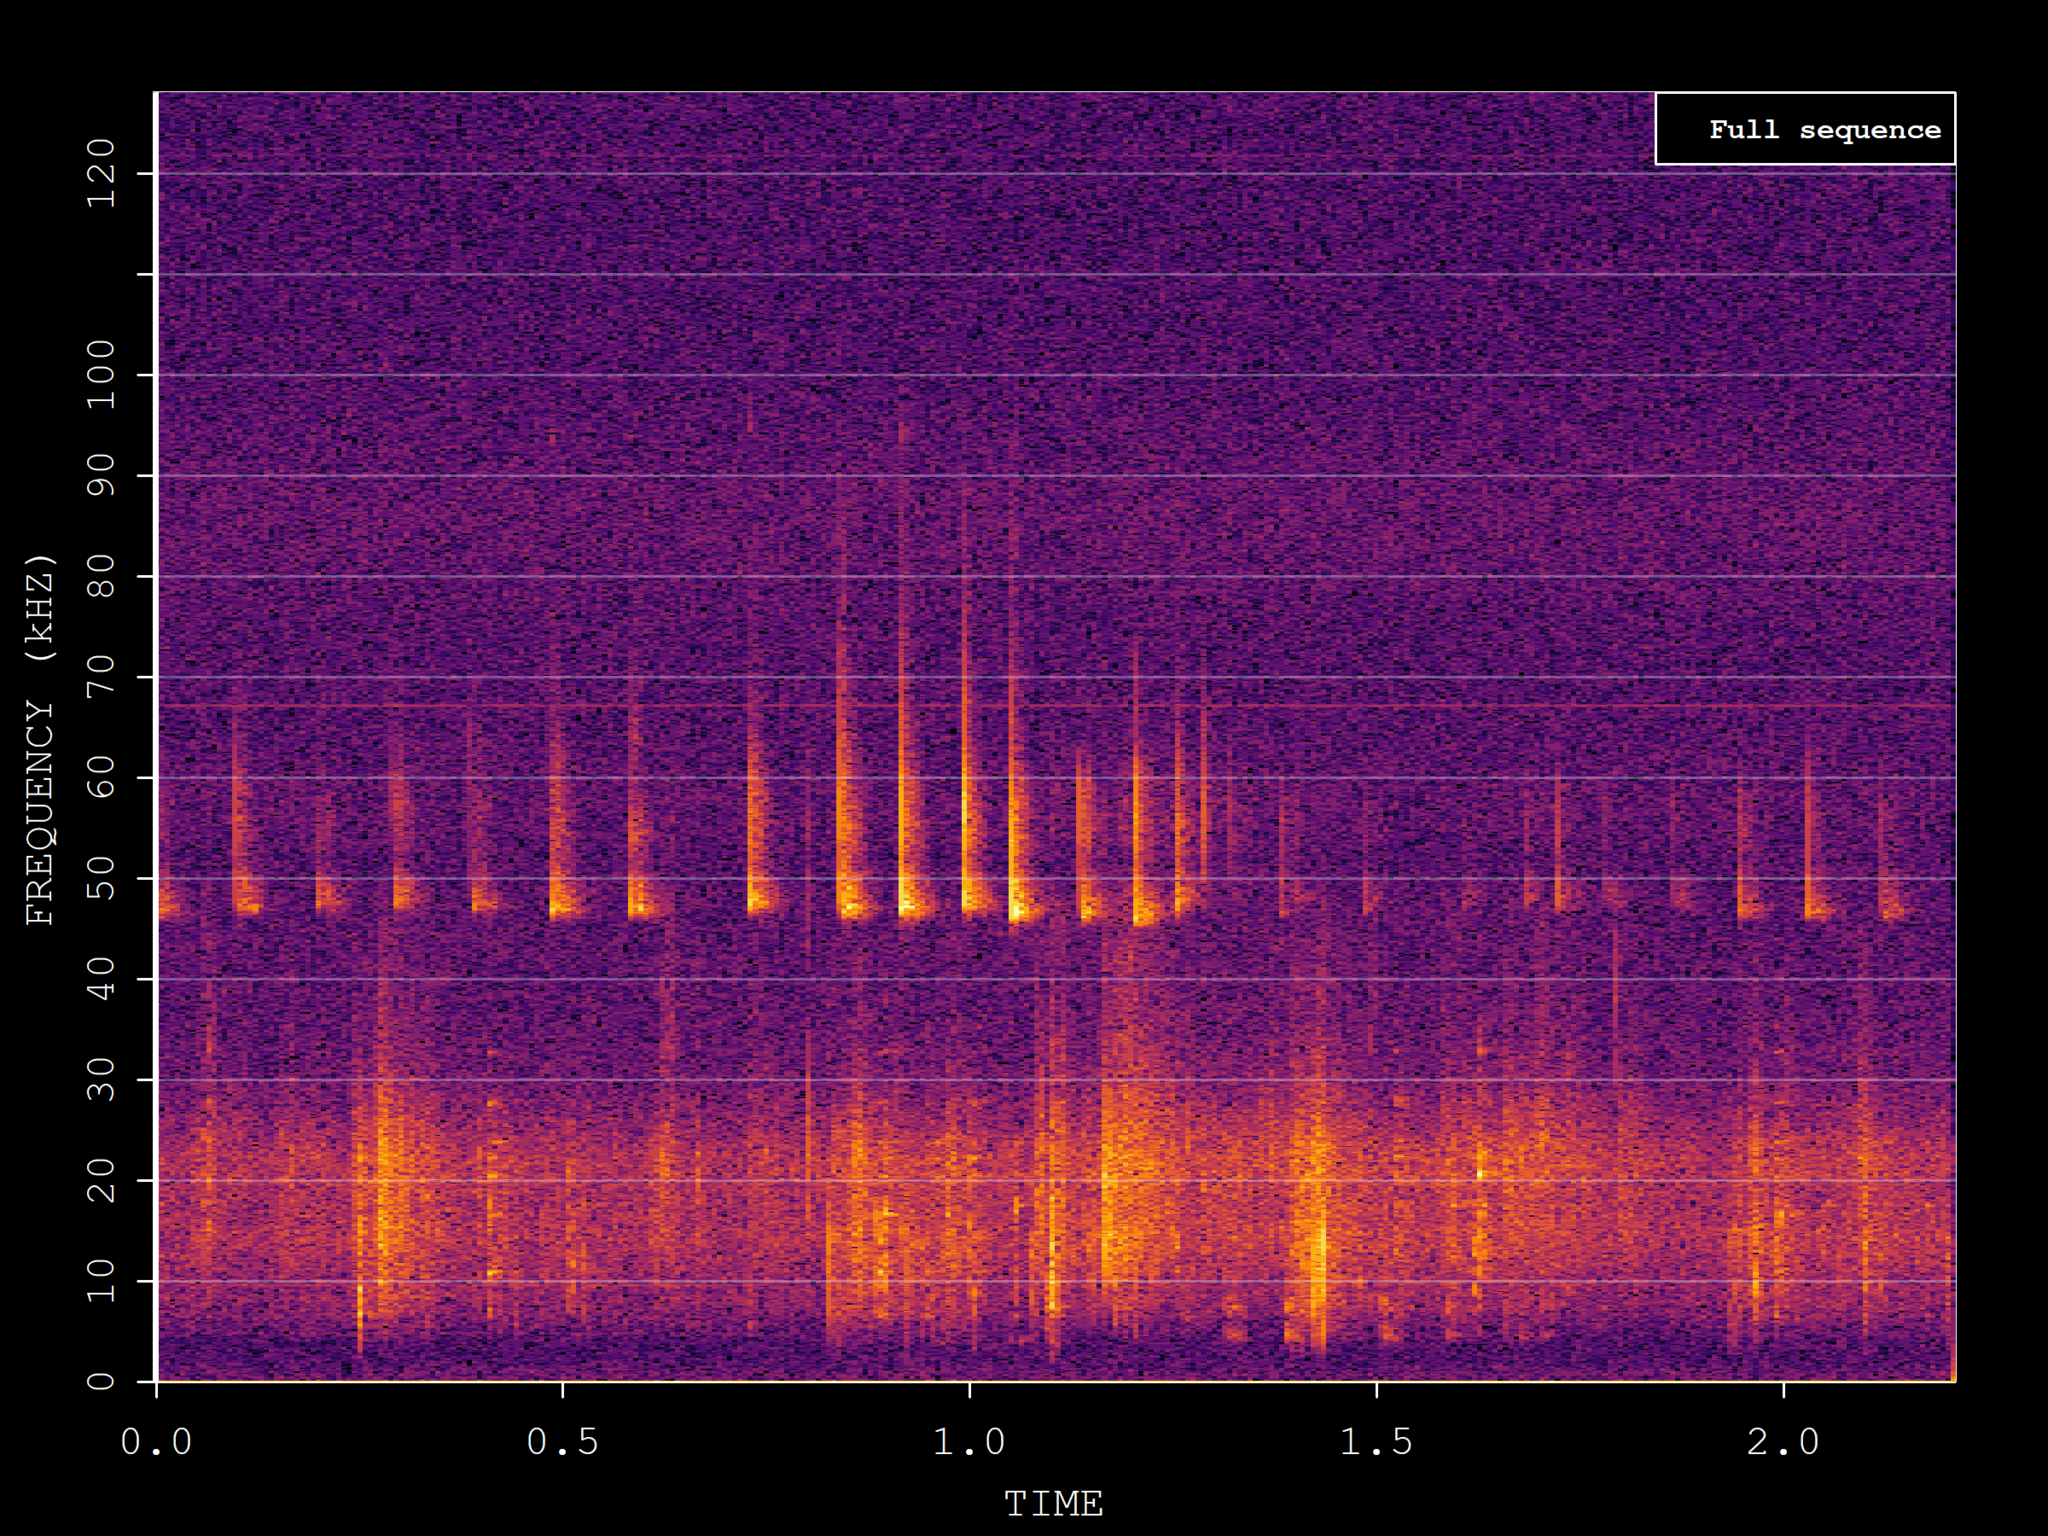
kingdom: Animalia
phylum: Chordata
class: Mammalia
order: Chiroptera
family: Vespertilionidae
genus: Pipistrellus
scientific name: Pipistrellus pipistrellus
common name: Common pipistrelle
